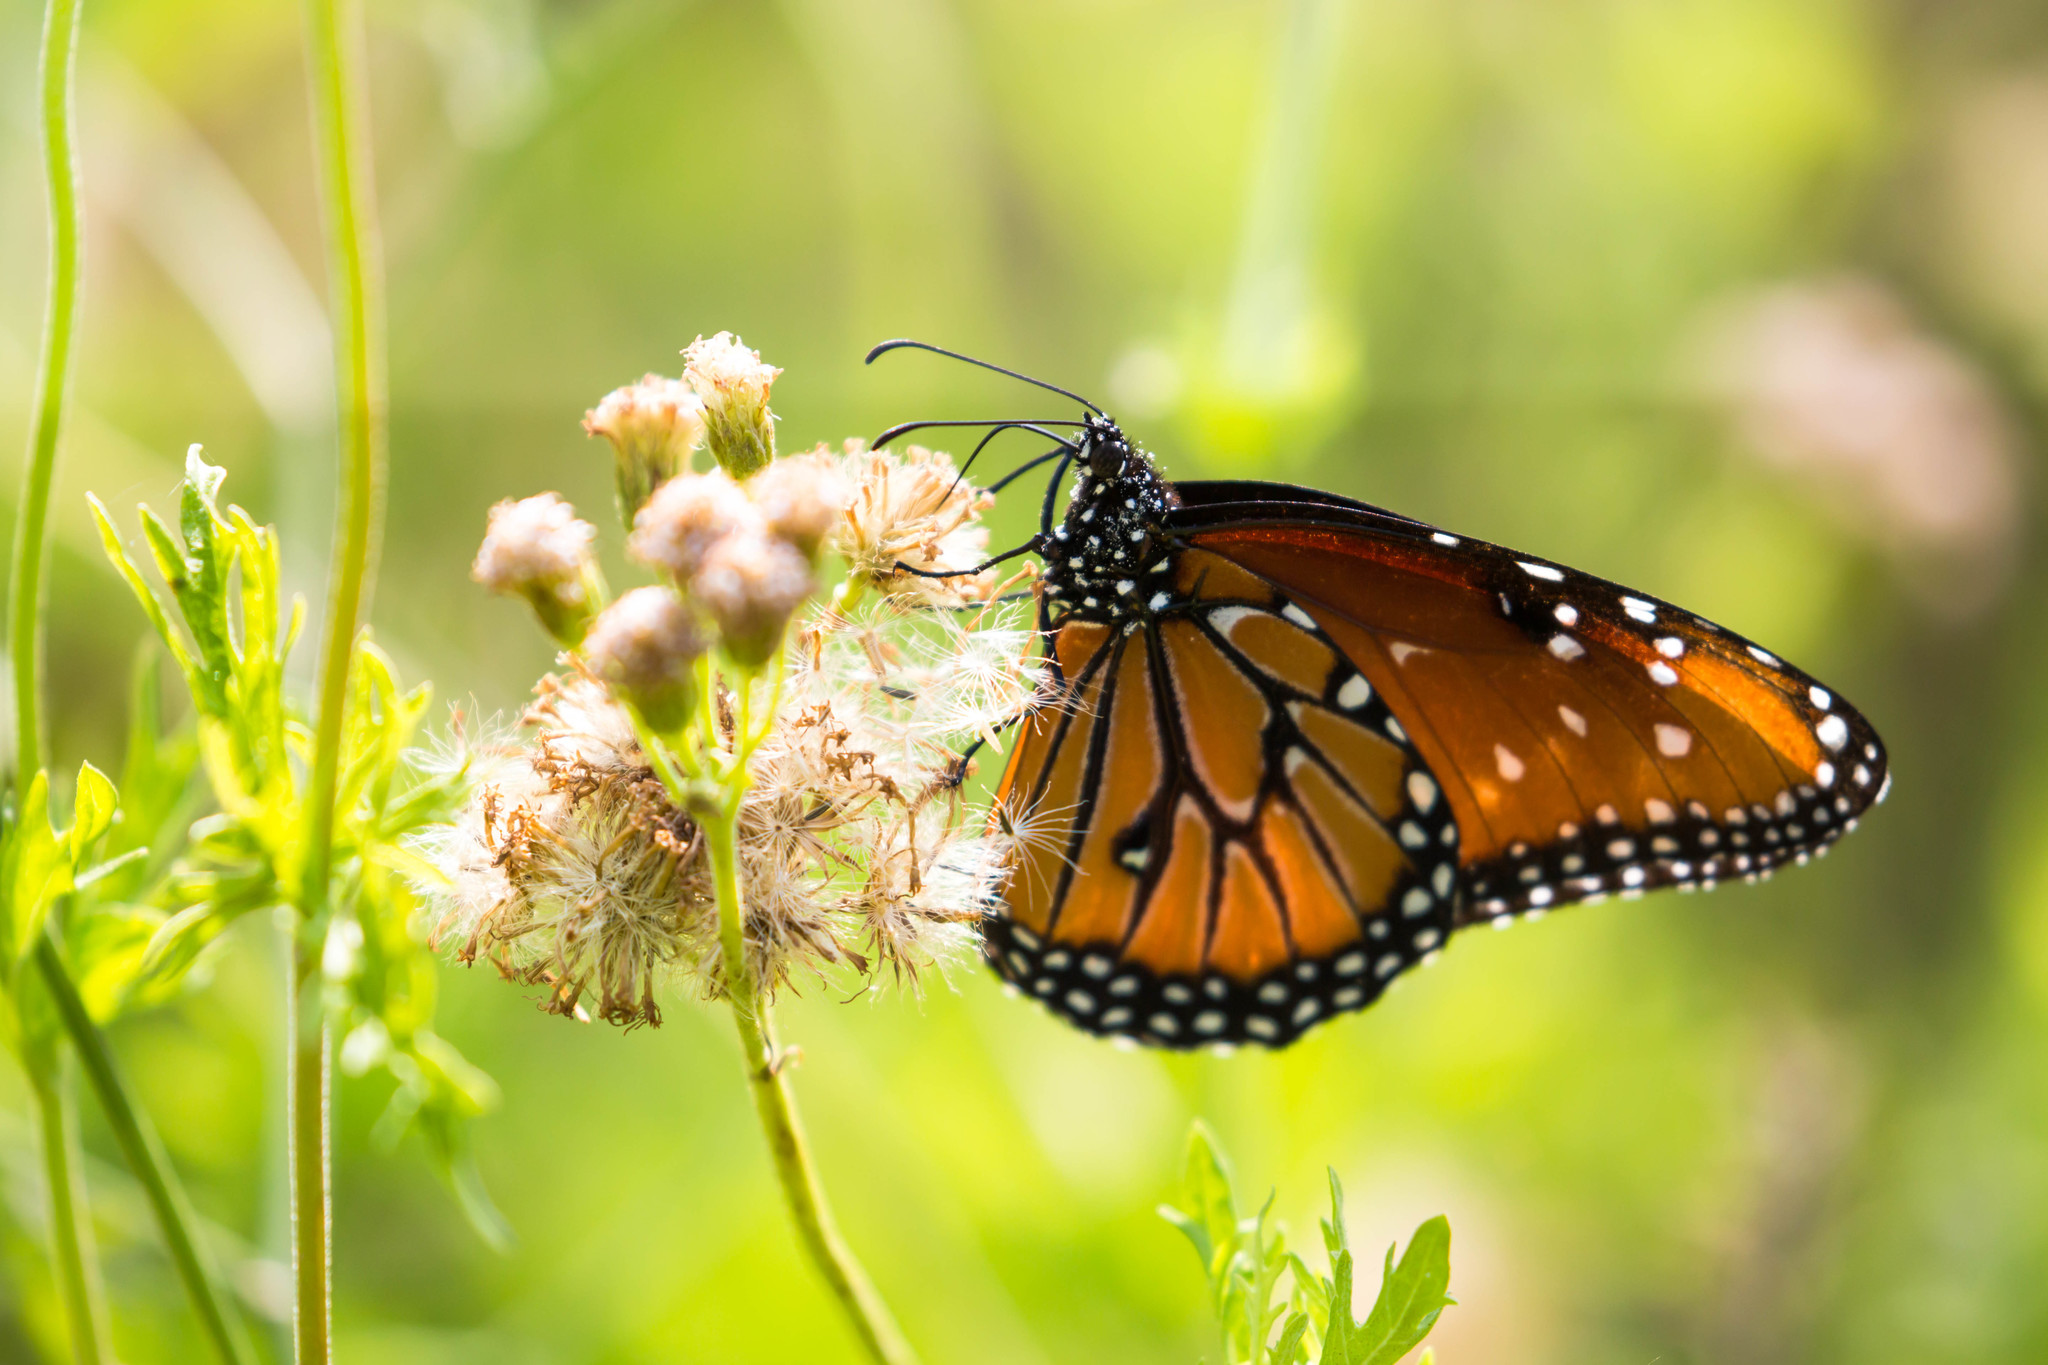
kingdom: Animalia
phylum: Arthropoda
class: Insecta
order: Lepidoptera
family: Nymphalidae
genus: Danaus
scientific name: Danaus gilippus
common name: Queen
